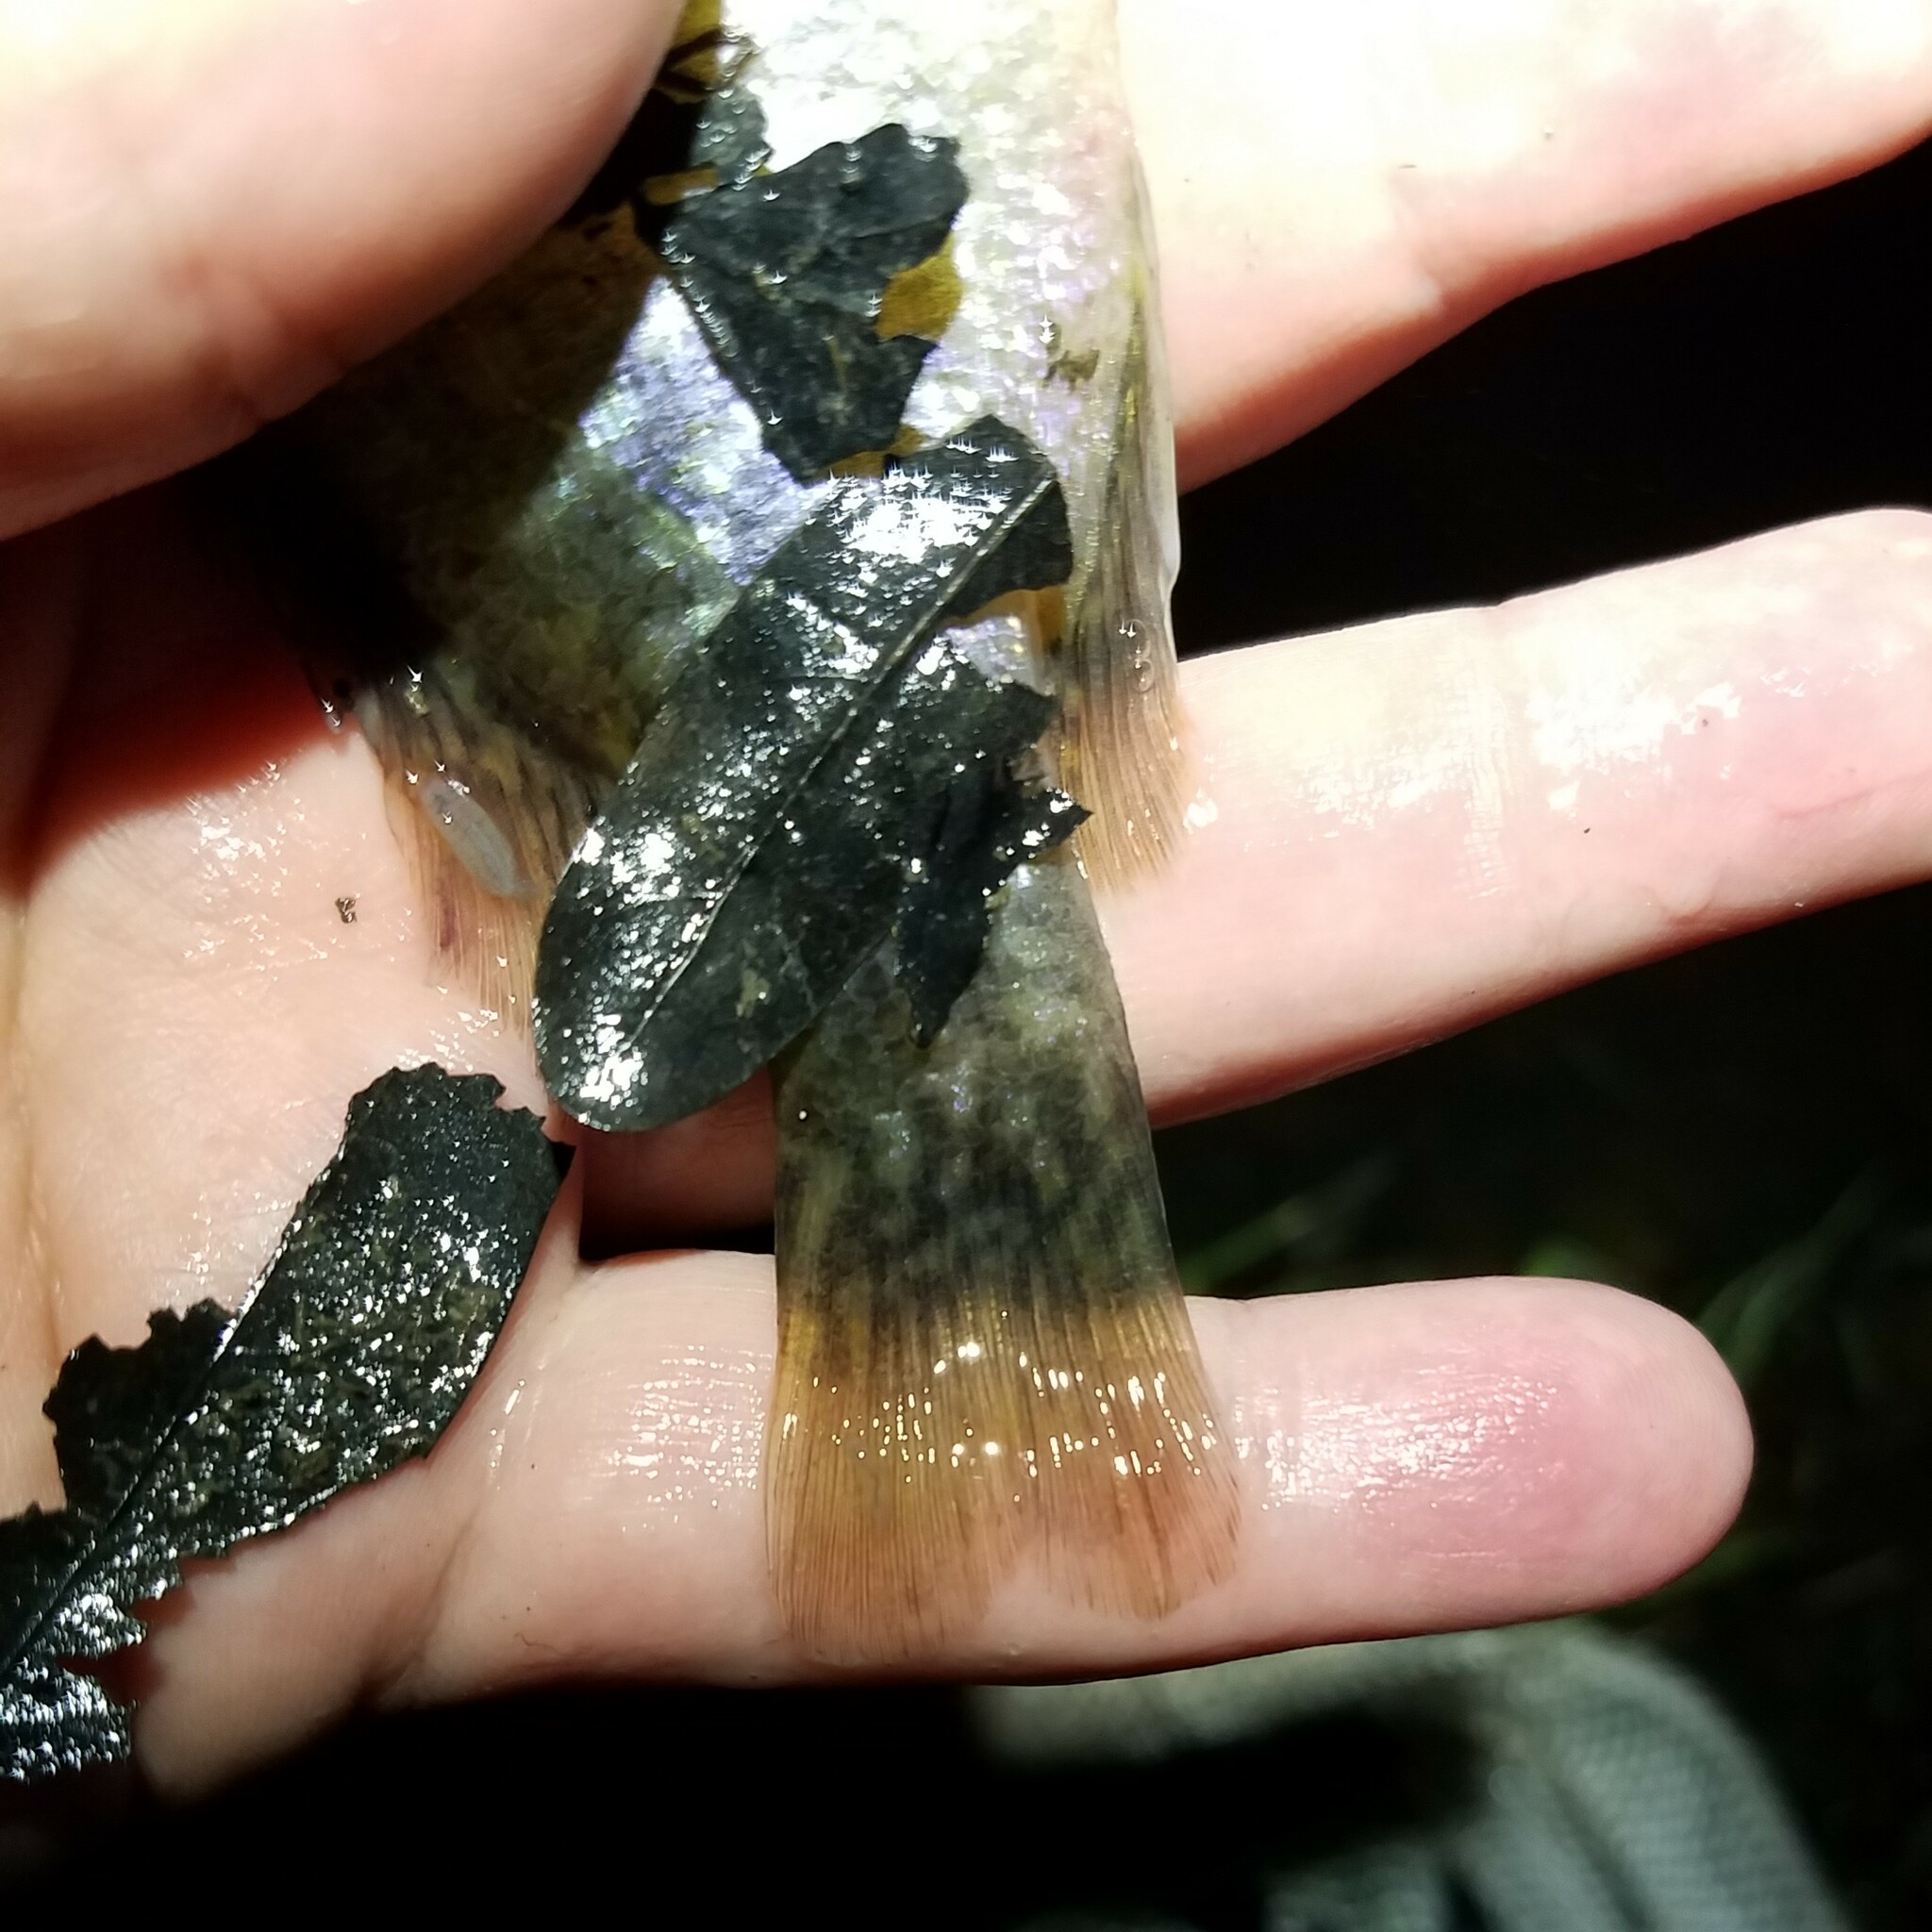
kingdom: Animalia
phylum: Chordata
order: Perciformes
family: Centrarchidae
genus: Lepomis
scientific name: Lepomis gulosus
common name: Warmouth
